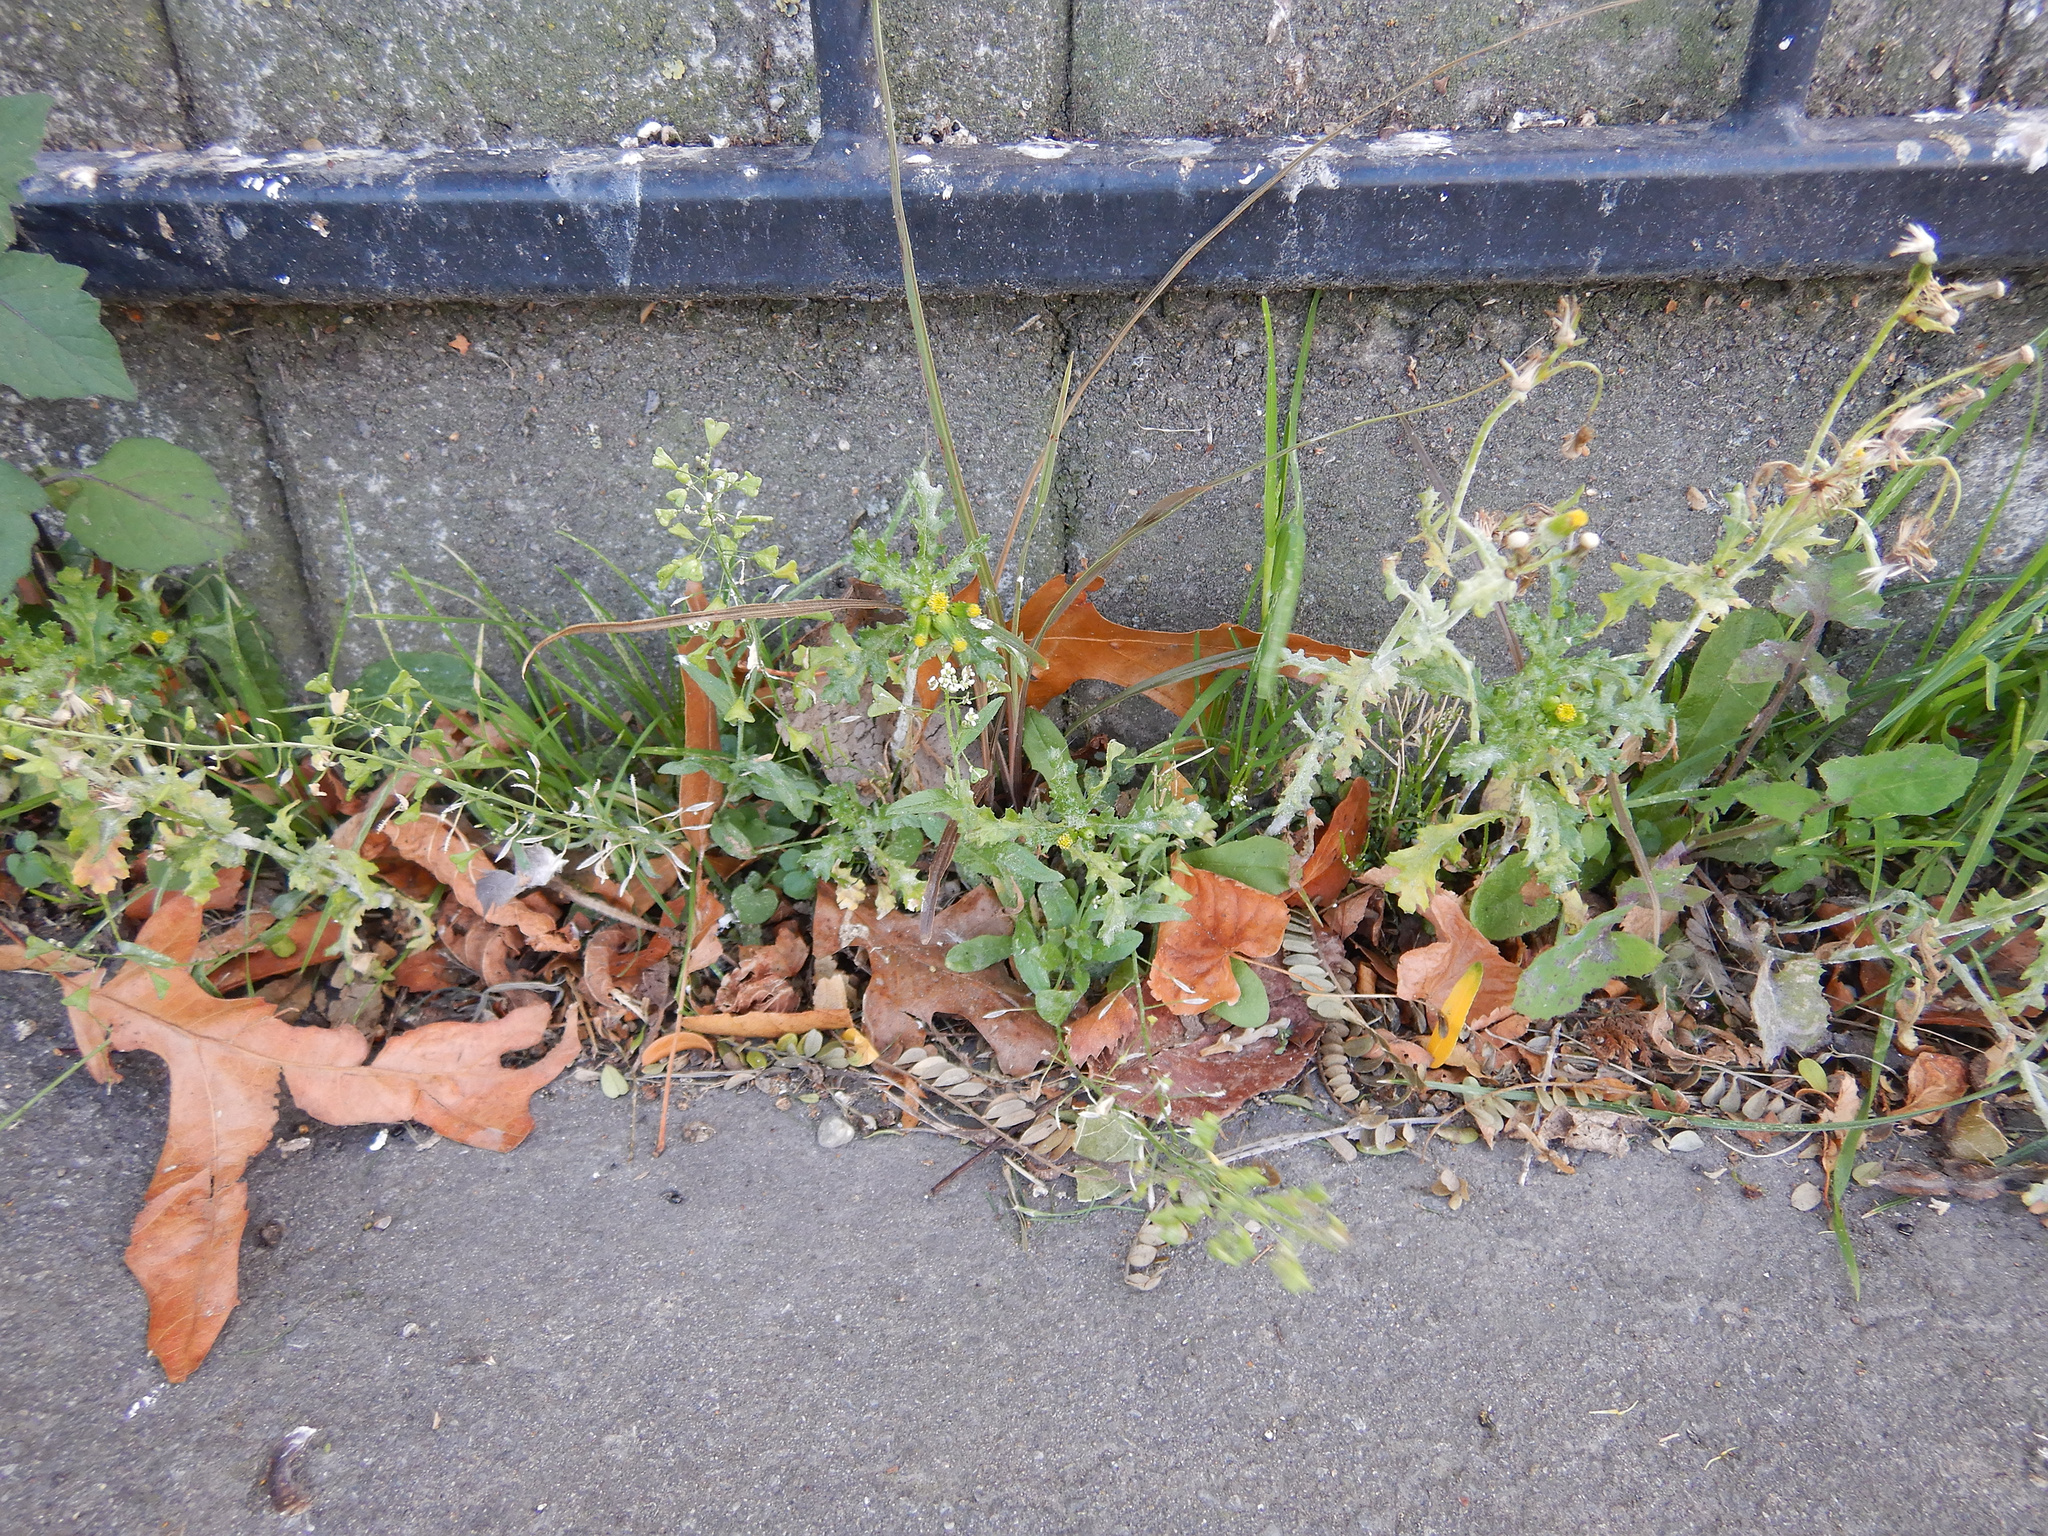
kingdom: Fungi
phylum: Ascomycota
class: Leotiomycetes
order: Helotiales
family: Erysiphaceae
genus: Golovinomyces
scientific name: Golovinomyces fischeri
